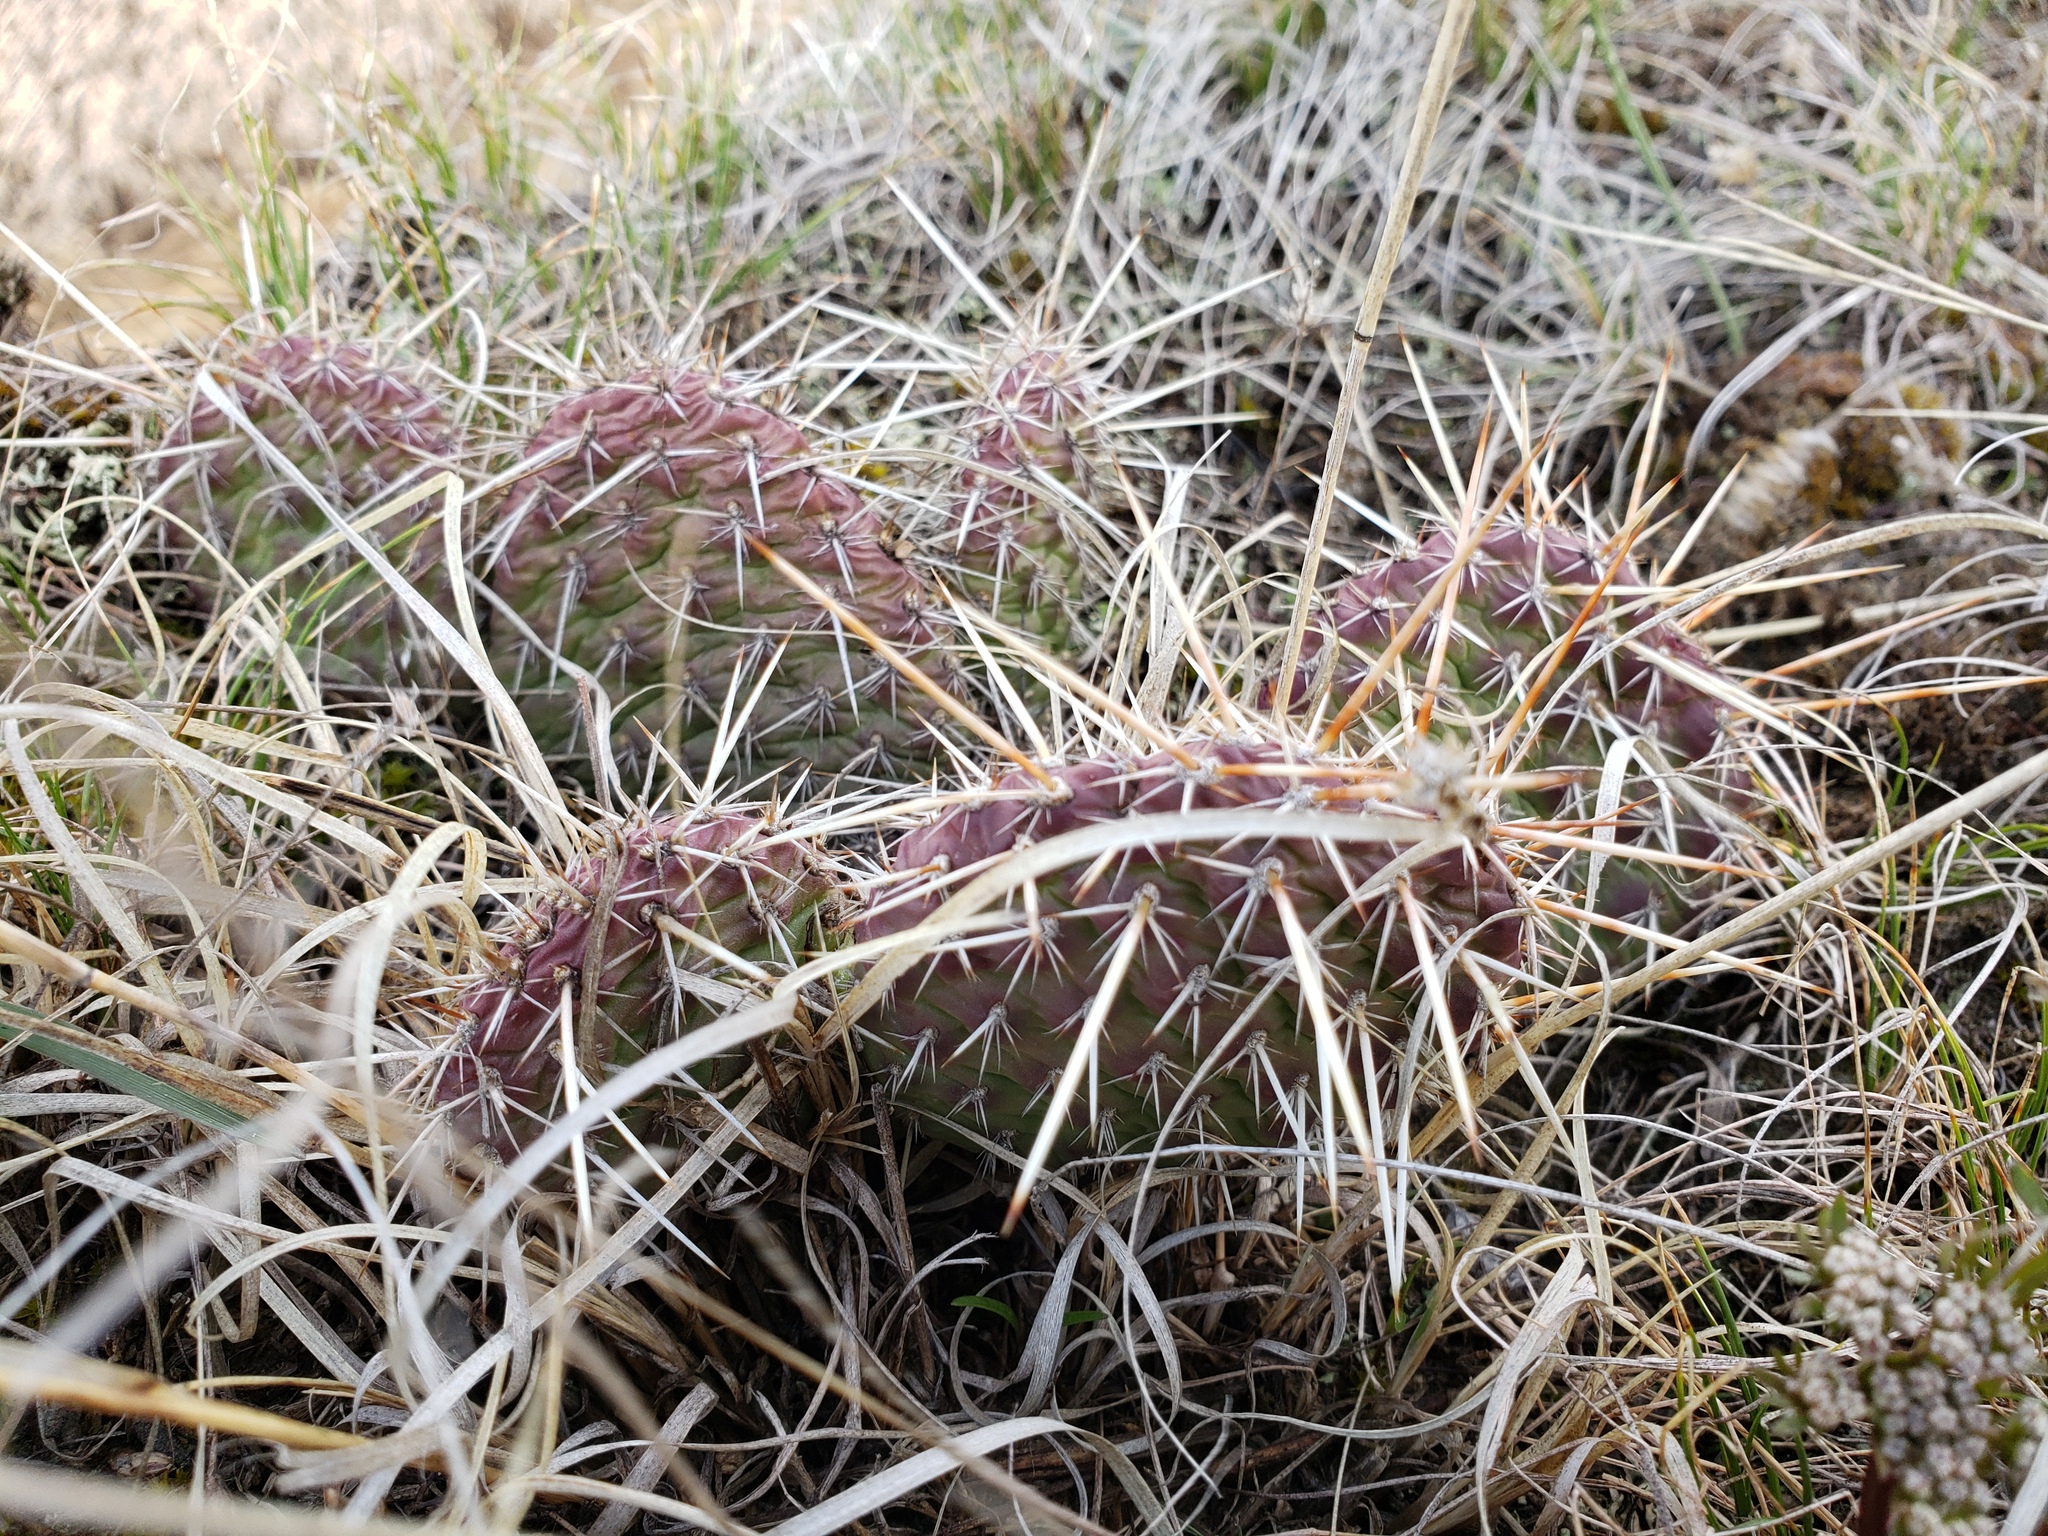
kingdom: Plantae
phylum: Tracheophyta
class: Magnoliopsida
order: Caryophyllales
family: Cactaceae
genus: Opuntia
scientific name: Opuntia polyacantha
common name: Plains prickly-pear
